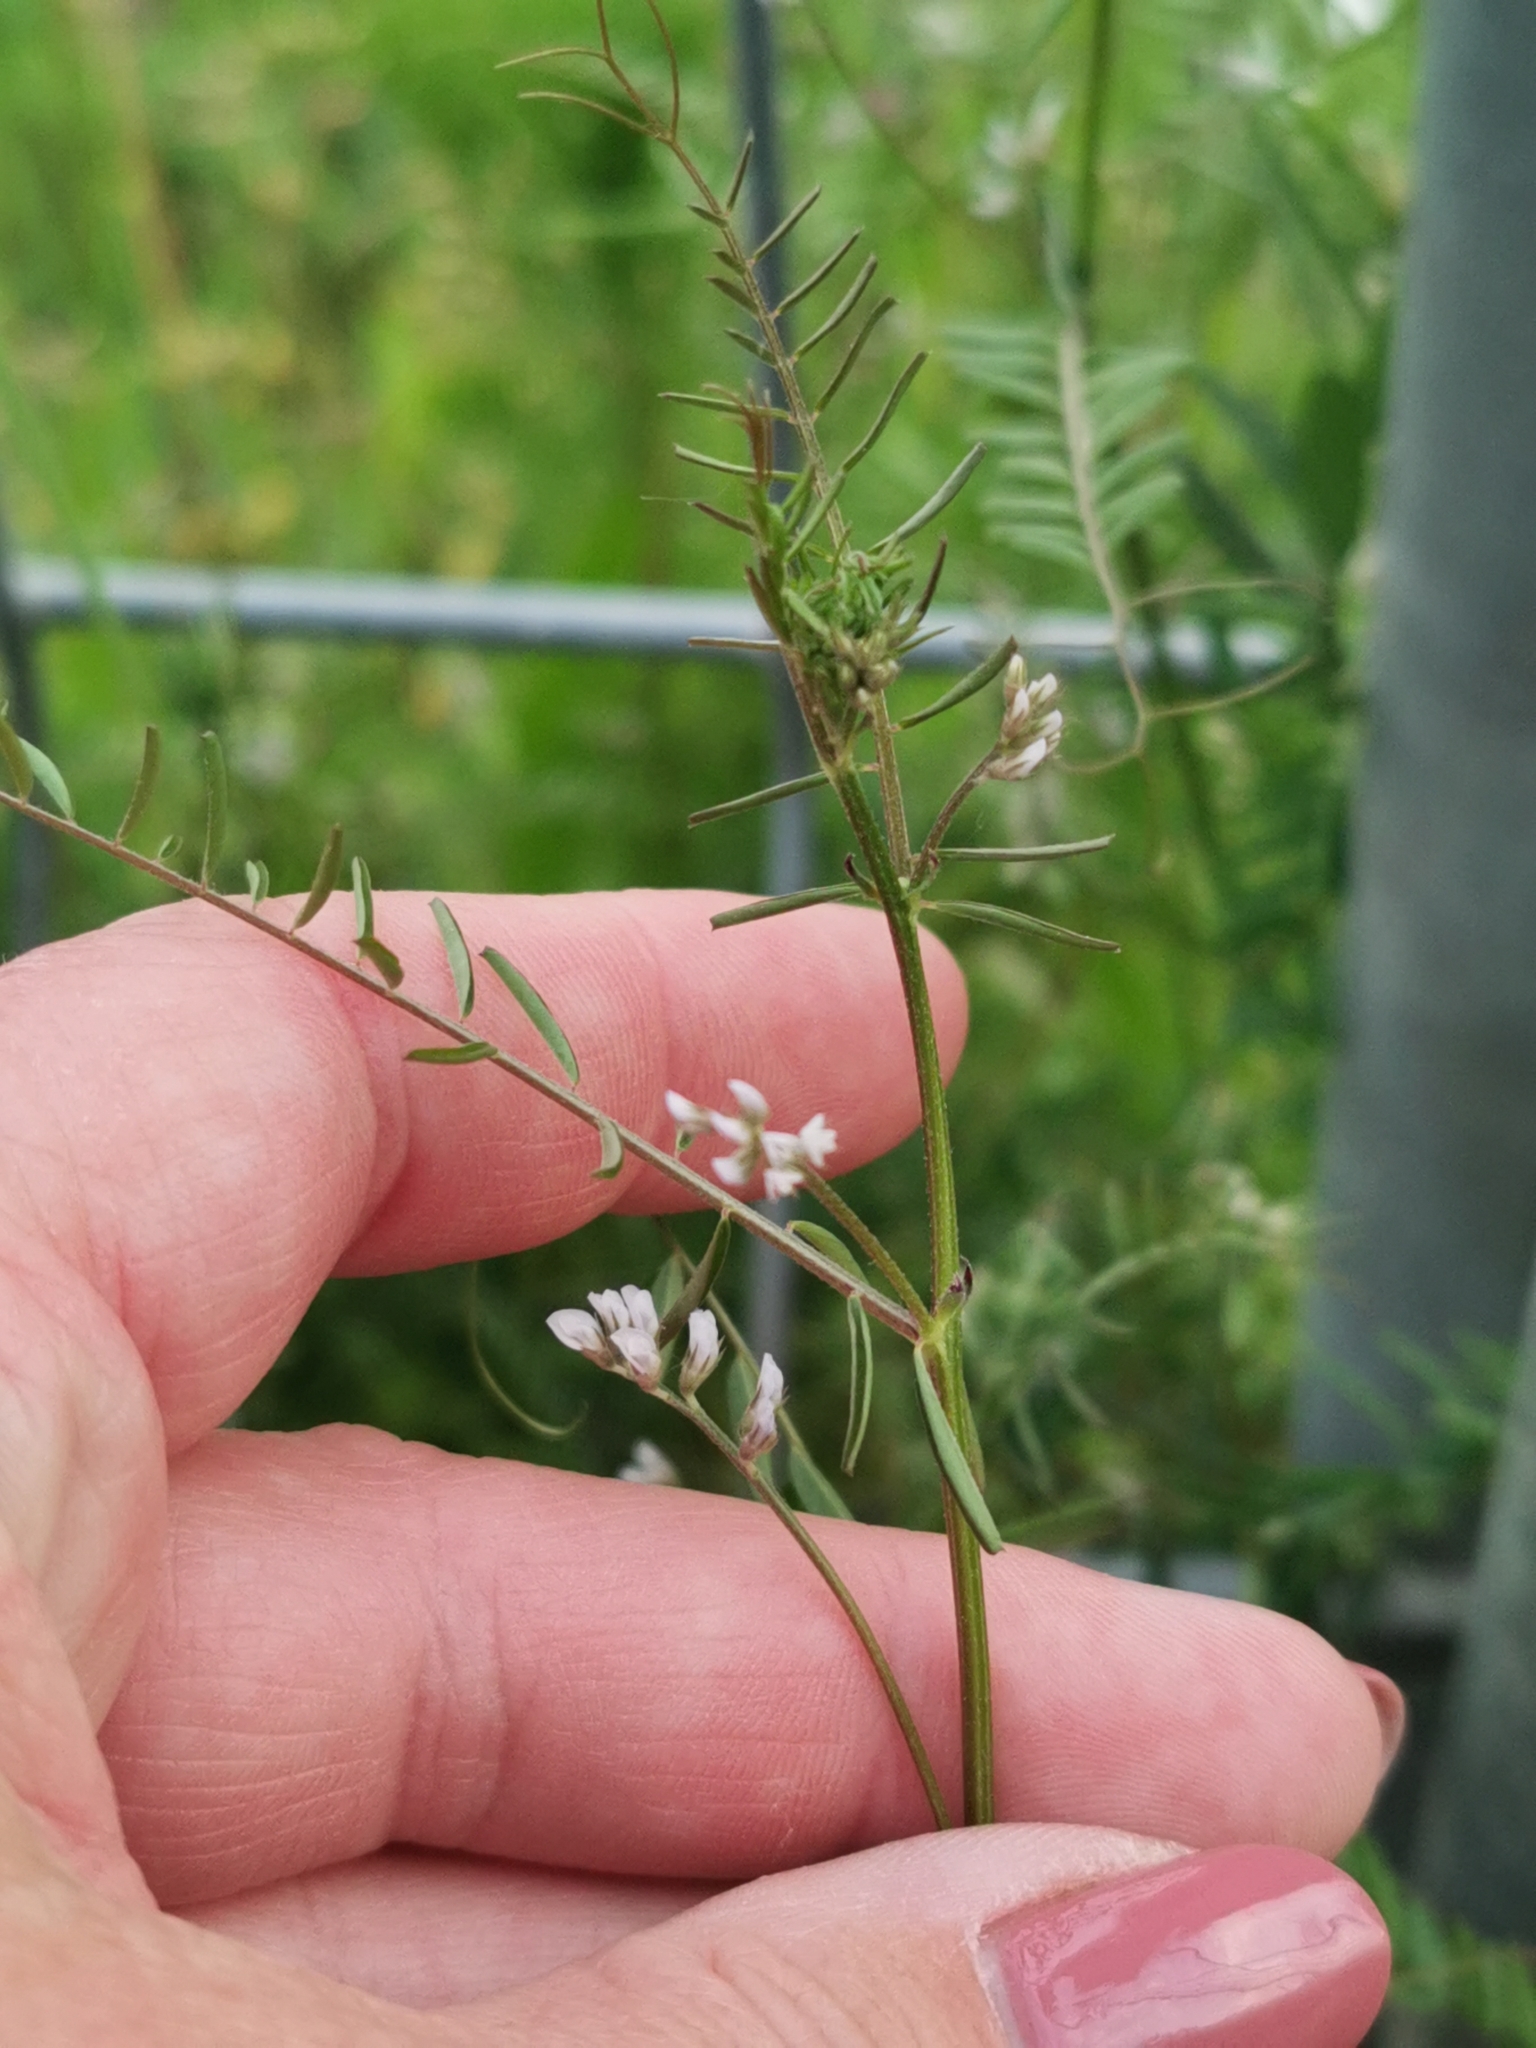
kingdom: Plantae
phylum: Tracheophyta
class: Magnoliopsida
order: Fabales
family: Fabaceae
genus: Vicia
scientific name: Vicia hirsuta
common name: Tiny vetch
